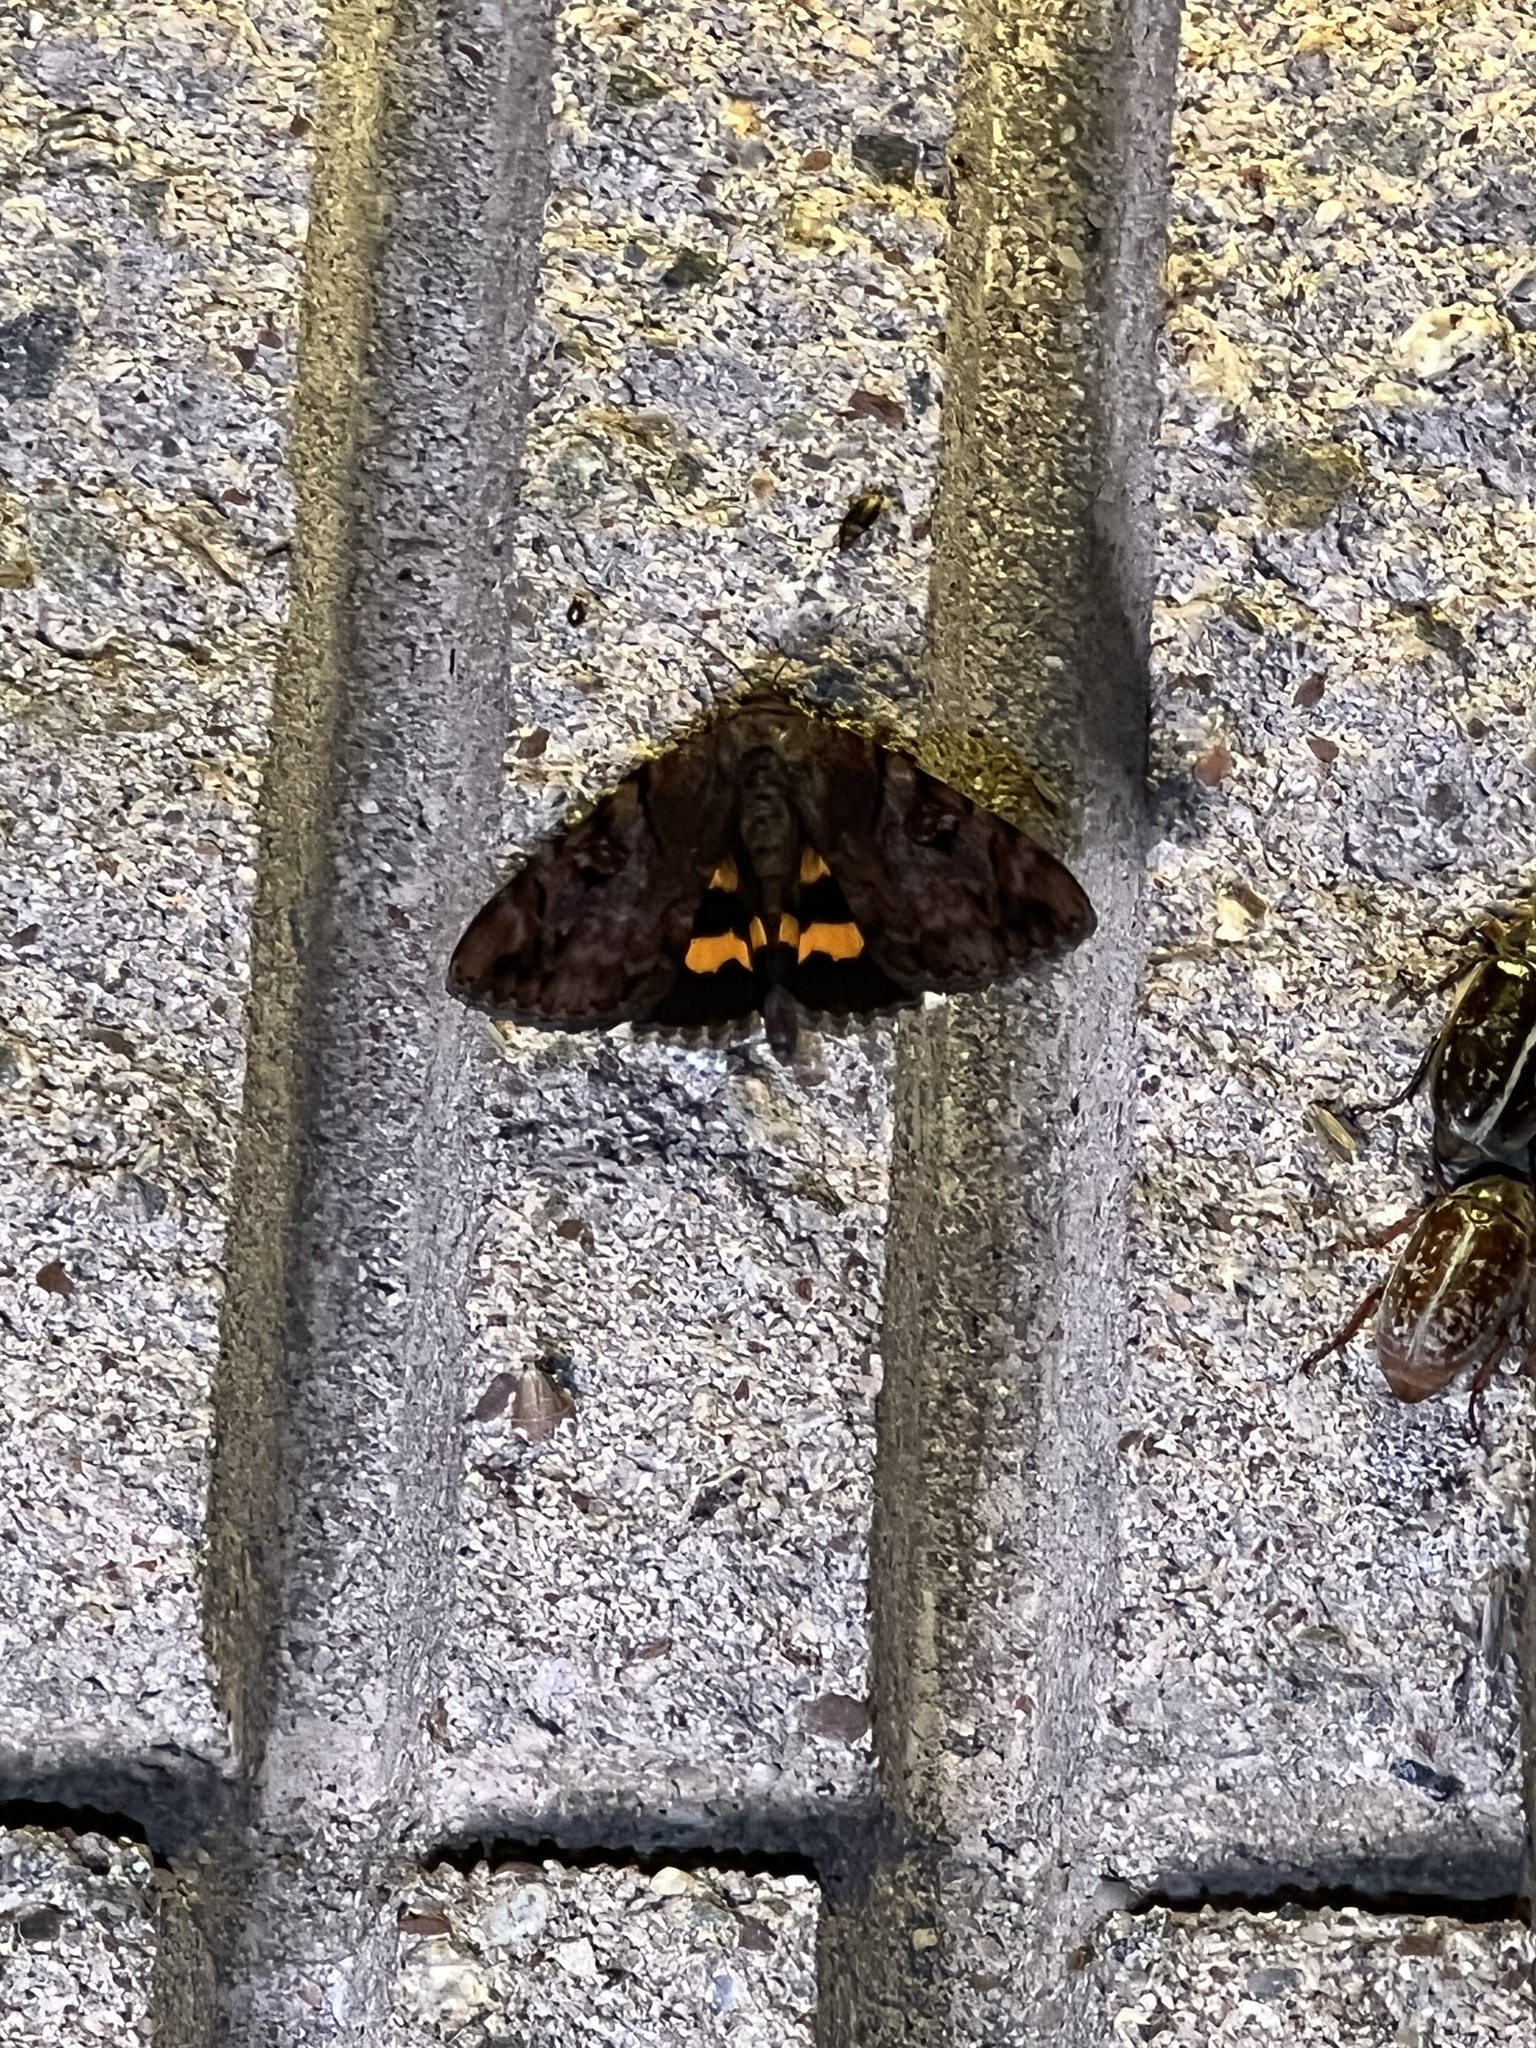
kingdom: Animalia
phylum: Arthropoda
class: Insecta
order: Lepidoptera
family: Erebidae
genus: Catocala
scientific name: Catocala muliercula
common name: The little wife underwing
